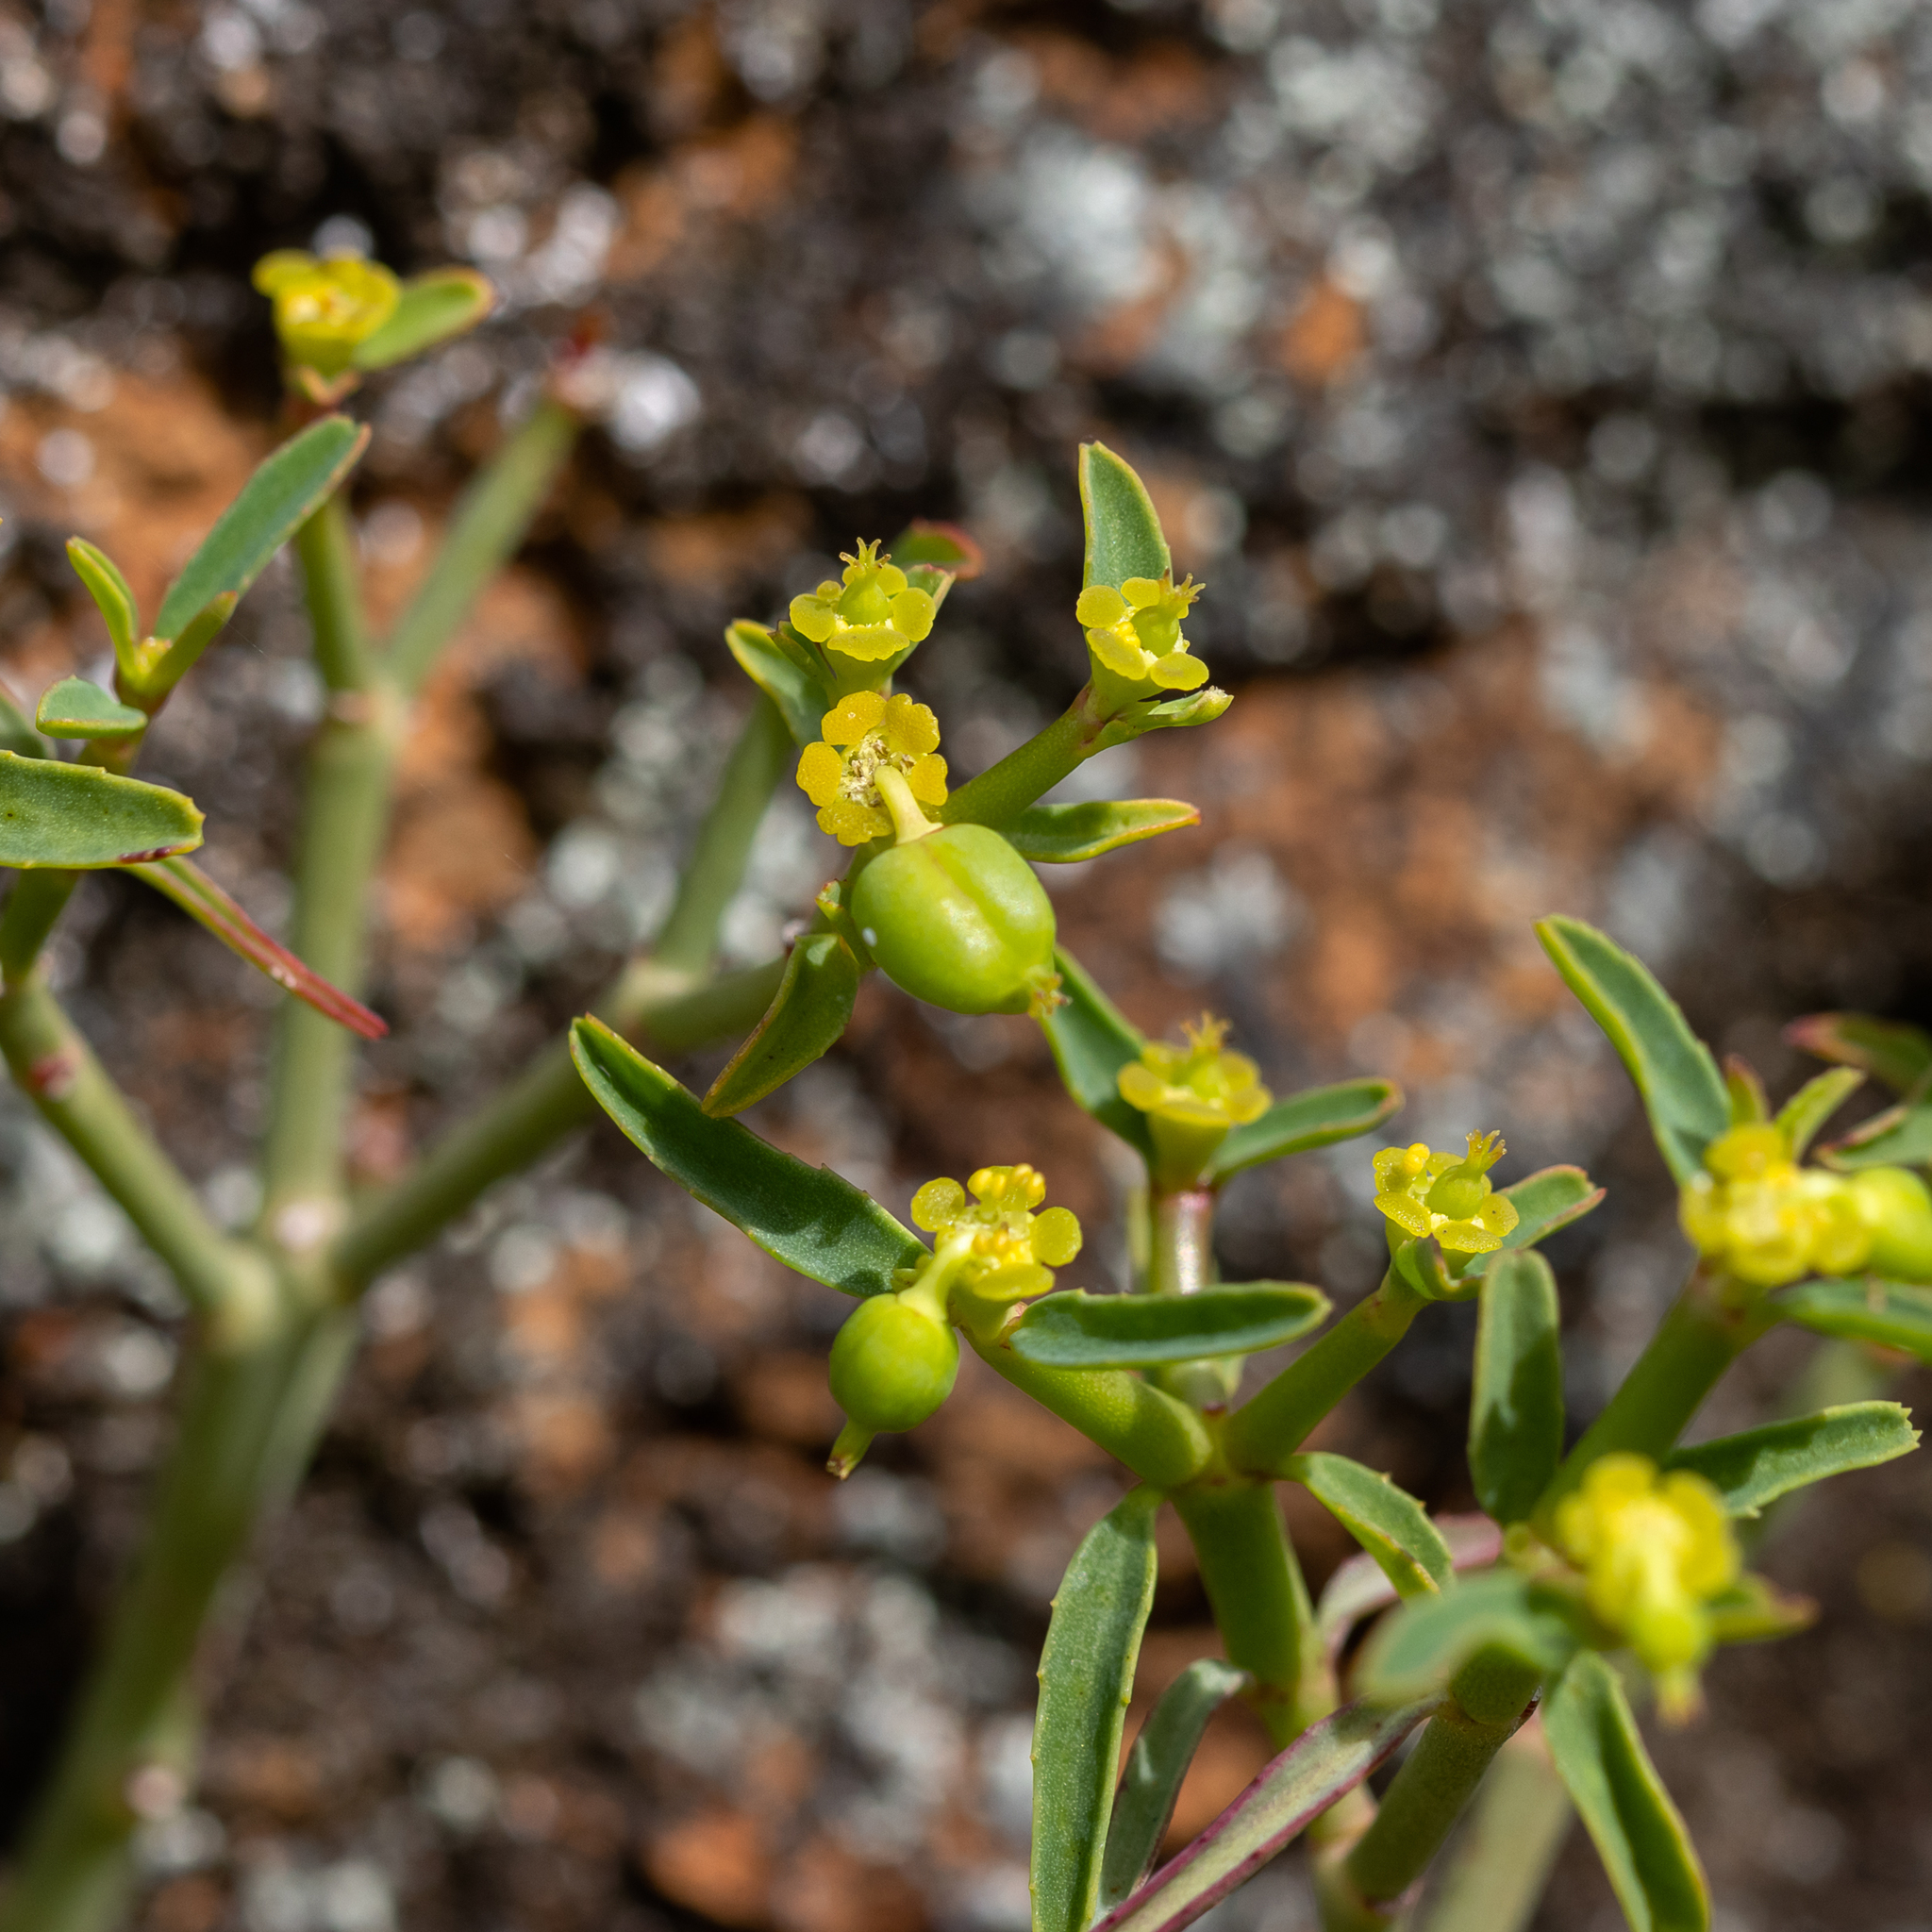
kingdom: Plantae
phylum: Tracheophyta
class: Magnoliopsida
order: Malpighiales
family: Euphorbiaceae
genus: Euphorbia
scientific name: Euphorbia tannensis
